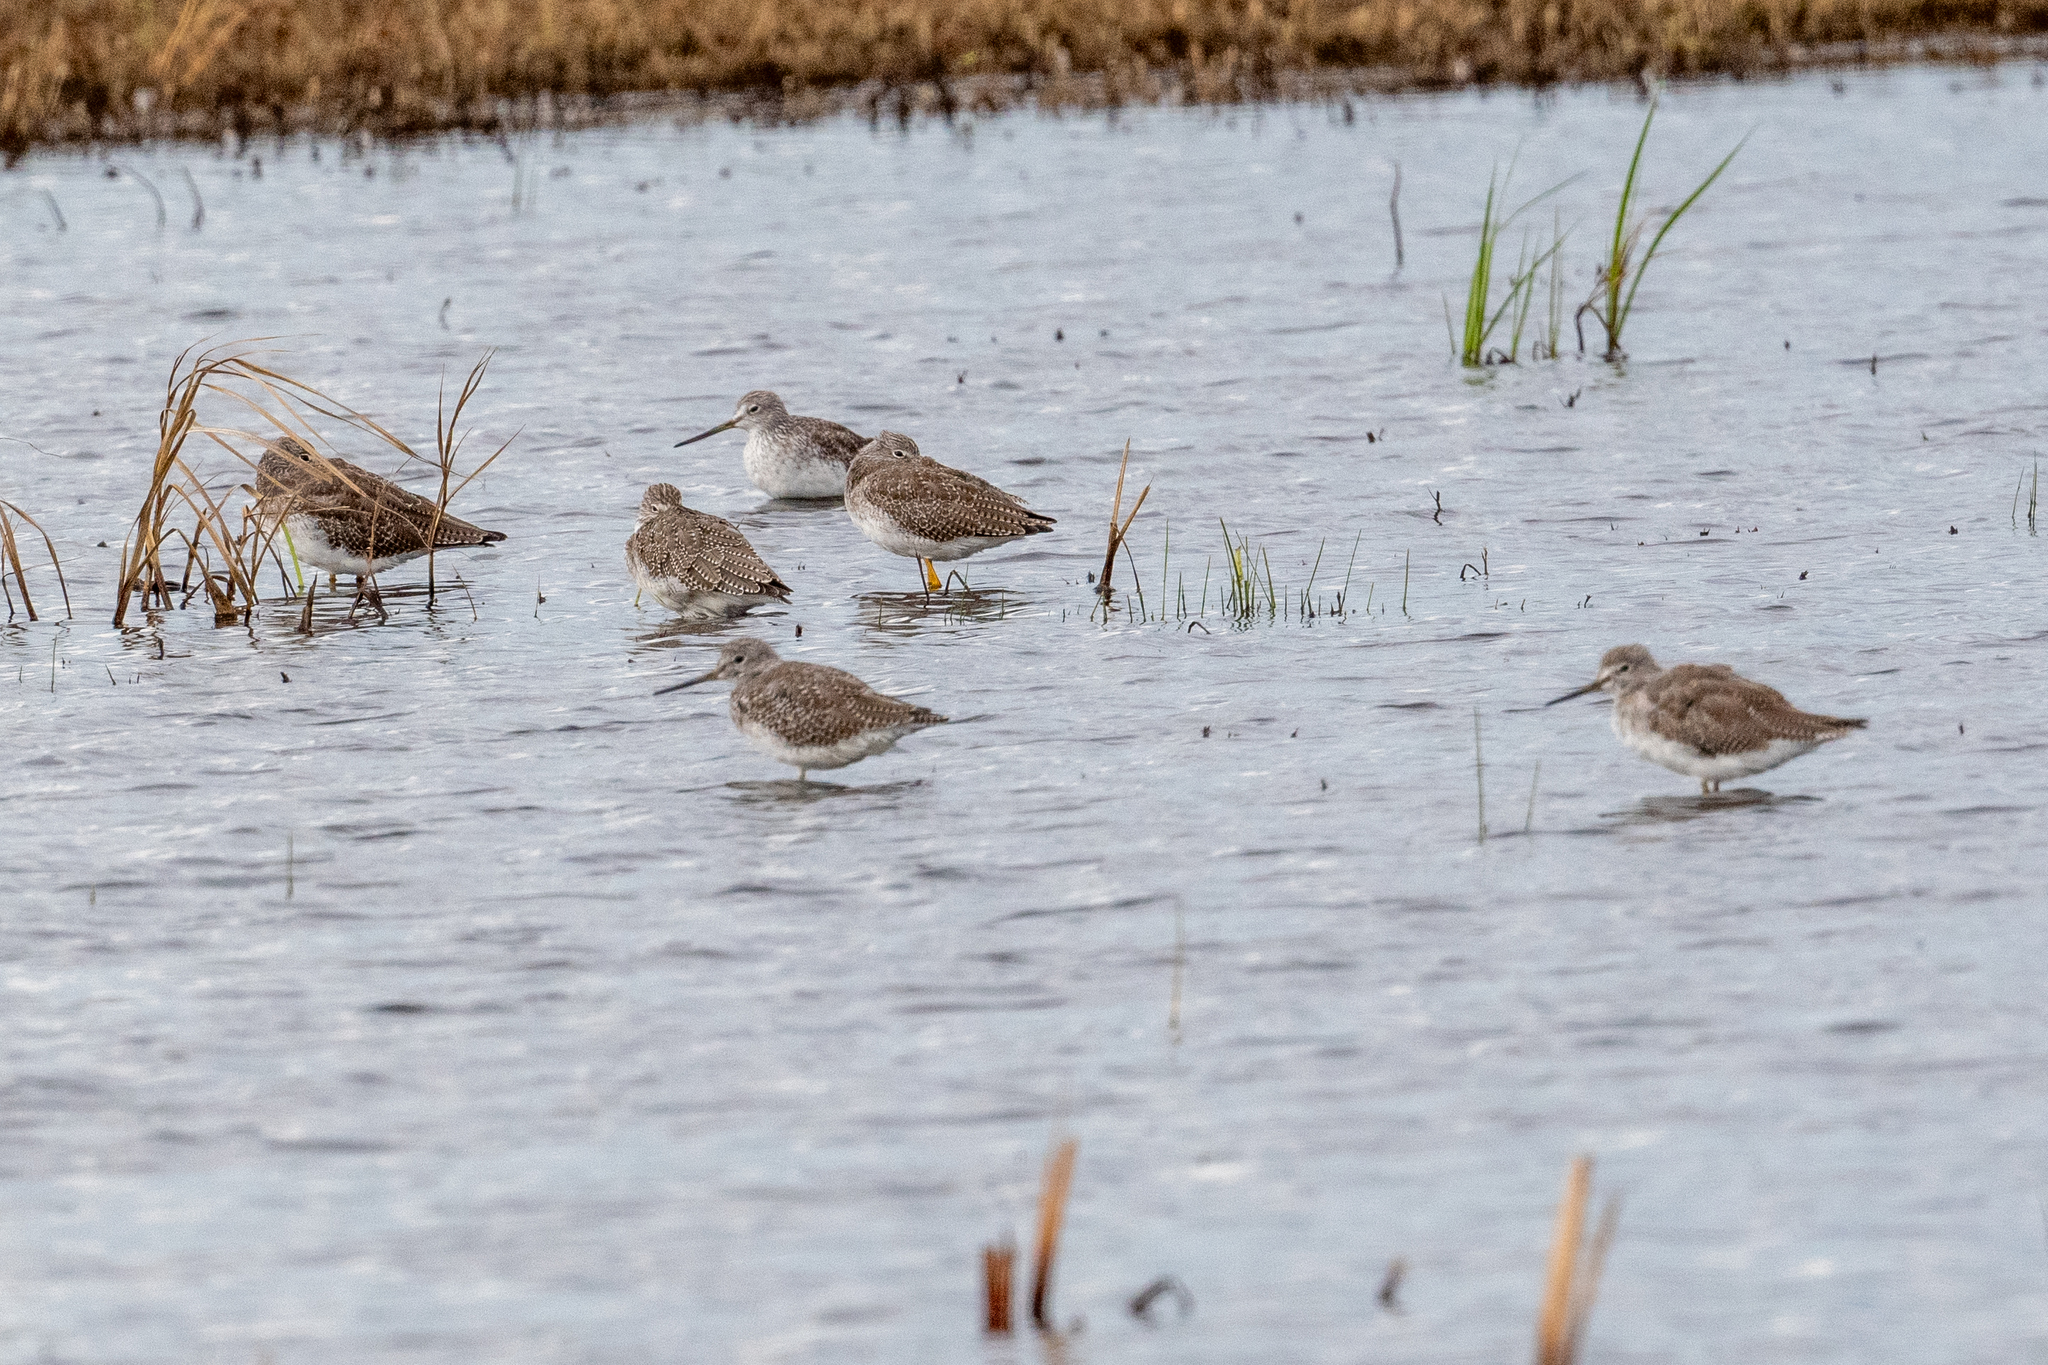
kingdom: Animalia
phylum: Chordata
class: Aves
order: Charadriiformes
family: Scolopacidae
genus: Tringa
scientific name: Tringa melanoleuca
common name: Greater yellowlegs
